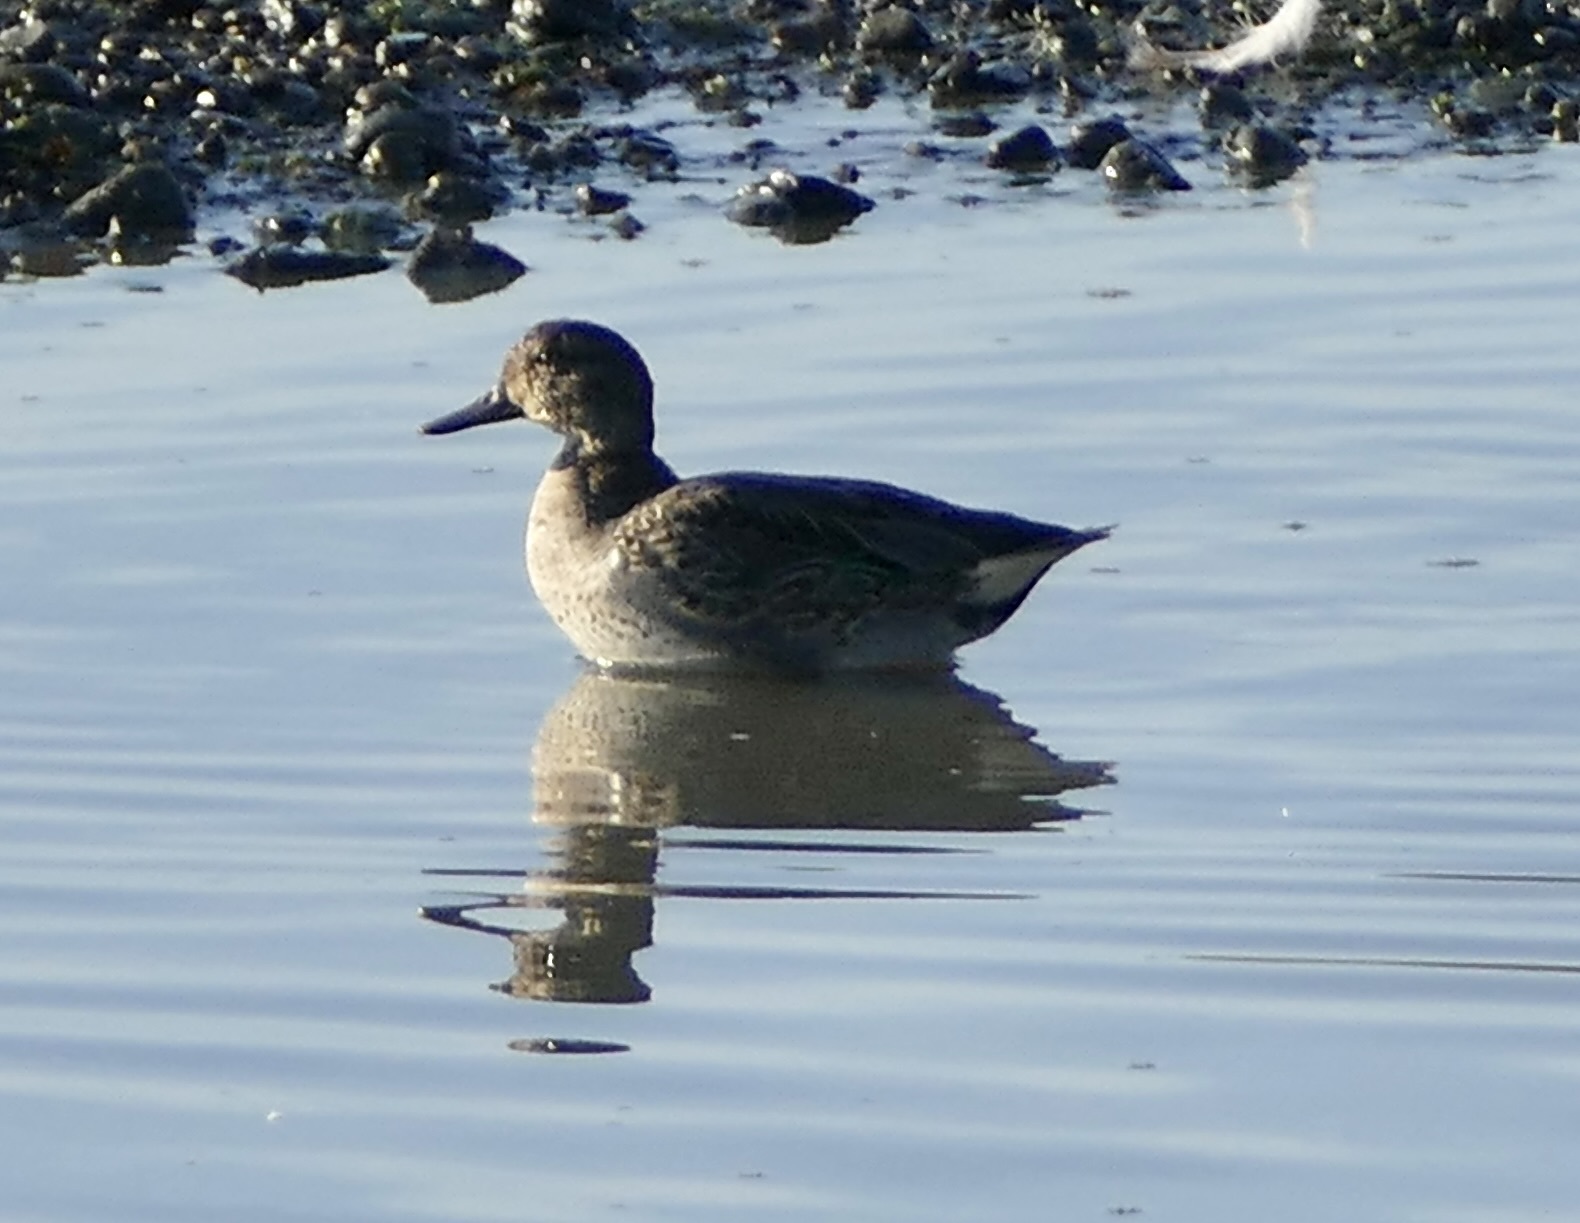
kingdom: Animalia
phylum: Chordata
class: Aves
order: Anseriformes
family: Anatidae
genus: Anas
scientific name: Anas crecca
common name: Eurasian teal
